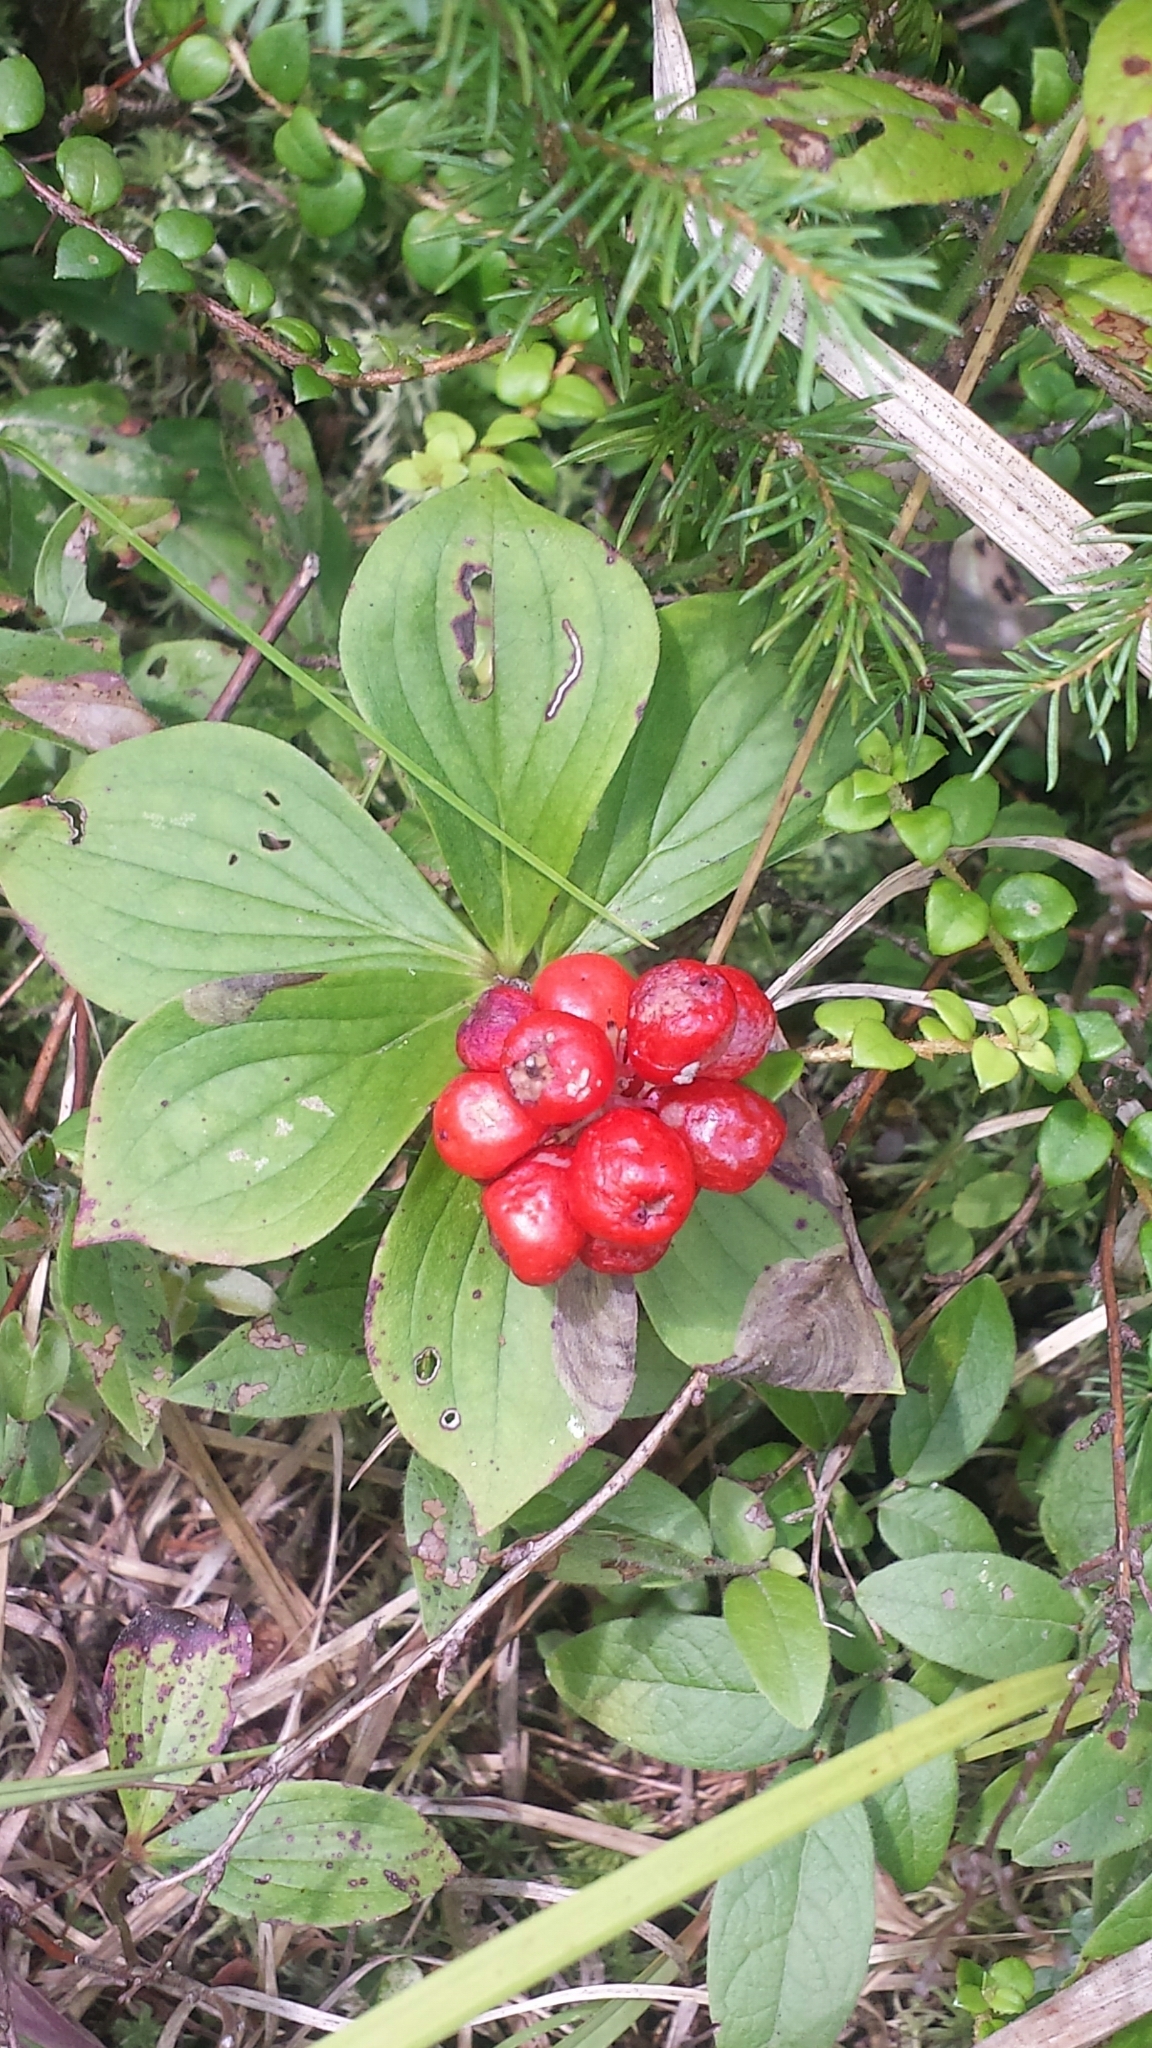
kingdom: Plantae
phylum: Tracheophyta
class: Magnoliopsida
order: Cornales
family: Cornaceae
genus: Cornus
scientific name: Cornus canadensis
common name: Creeping dogwood
